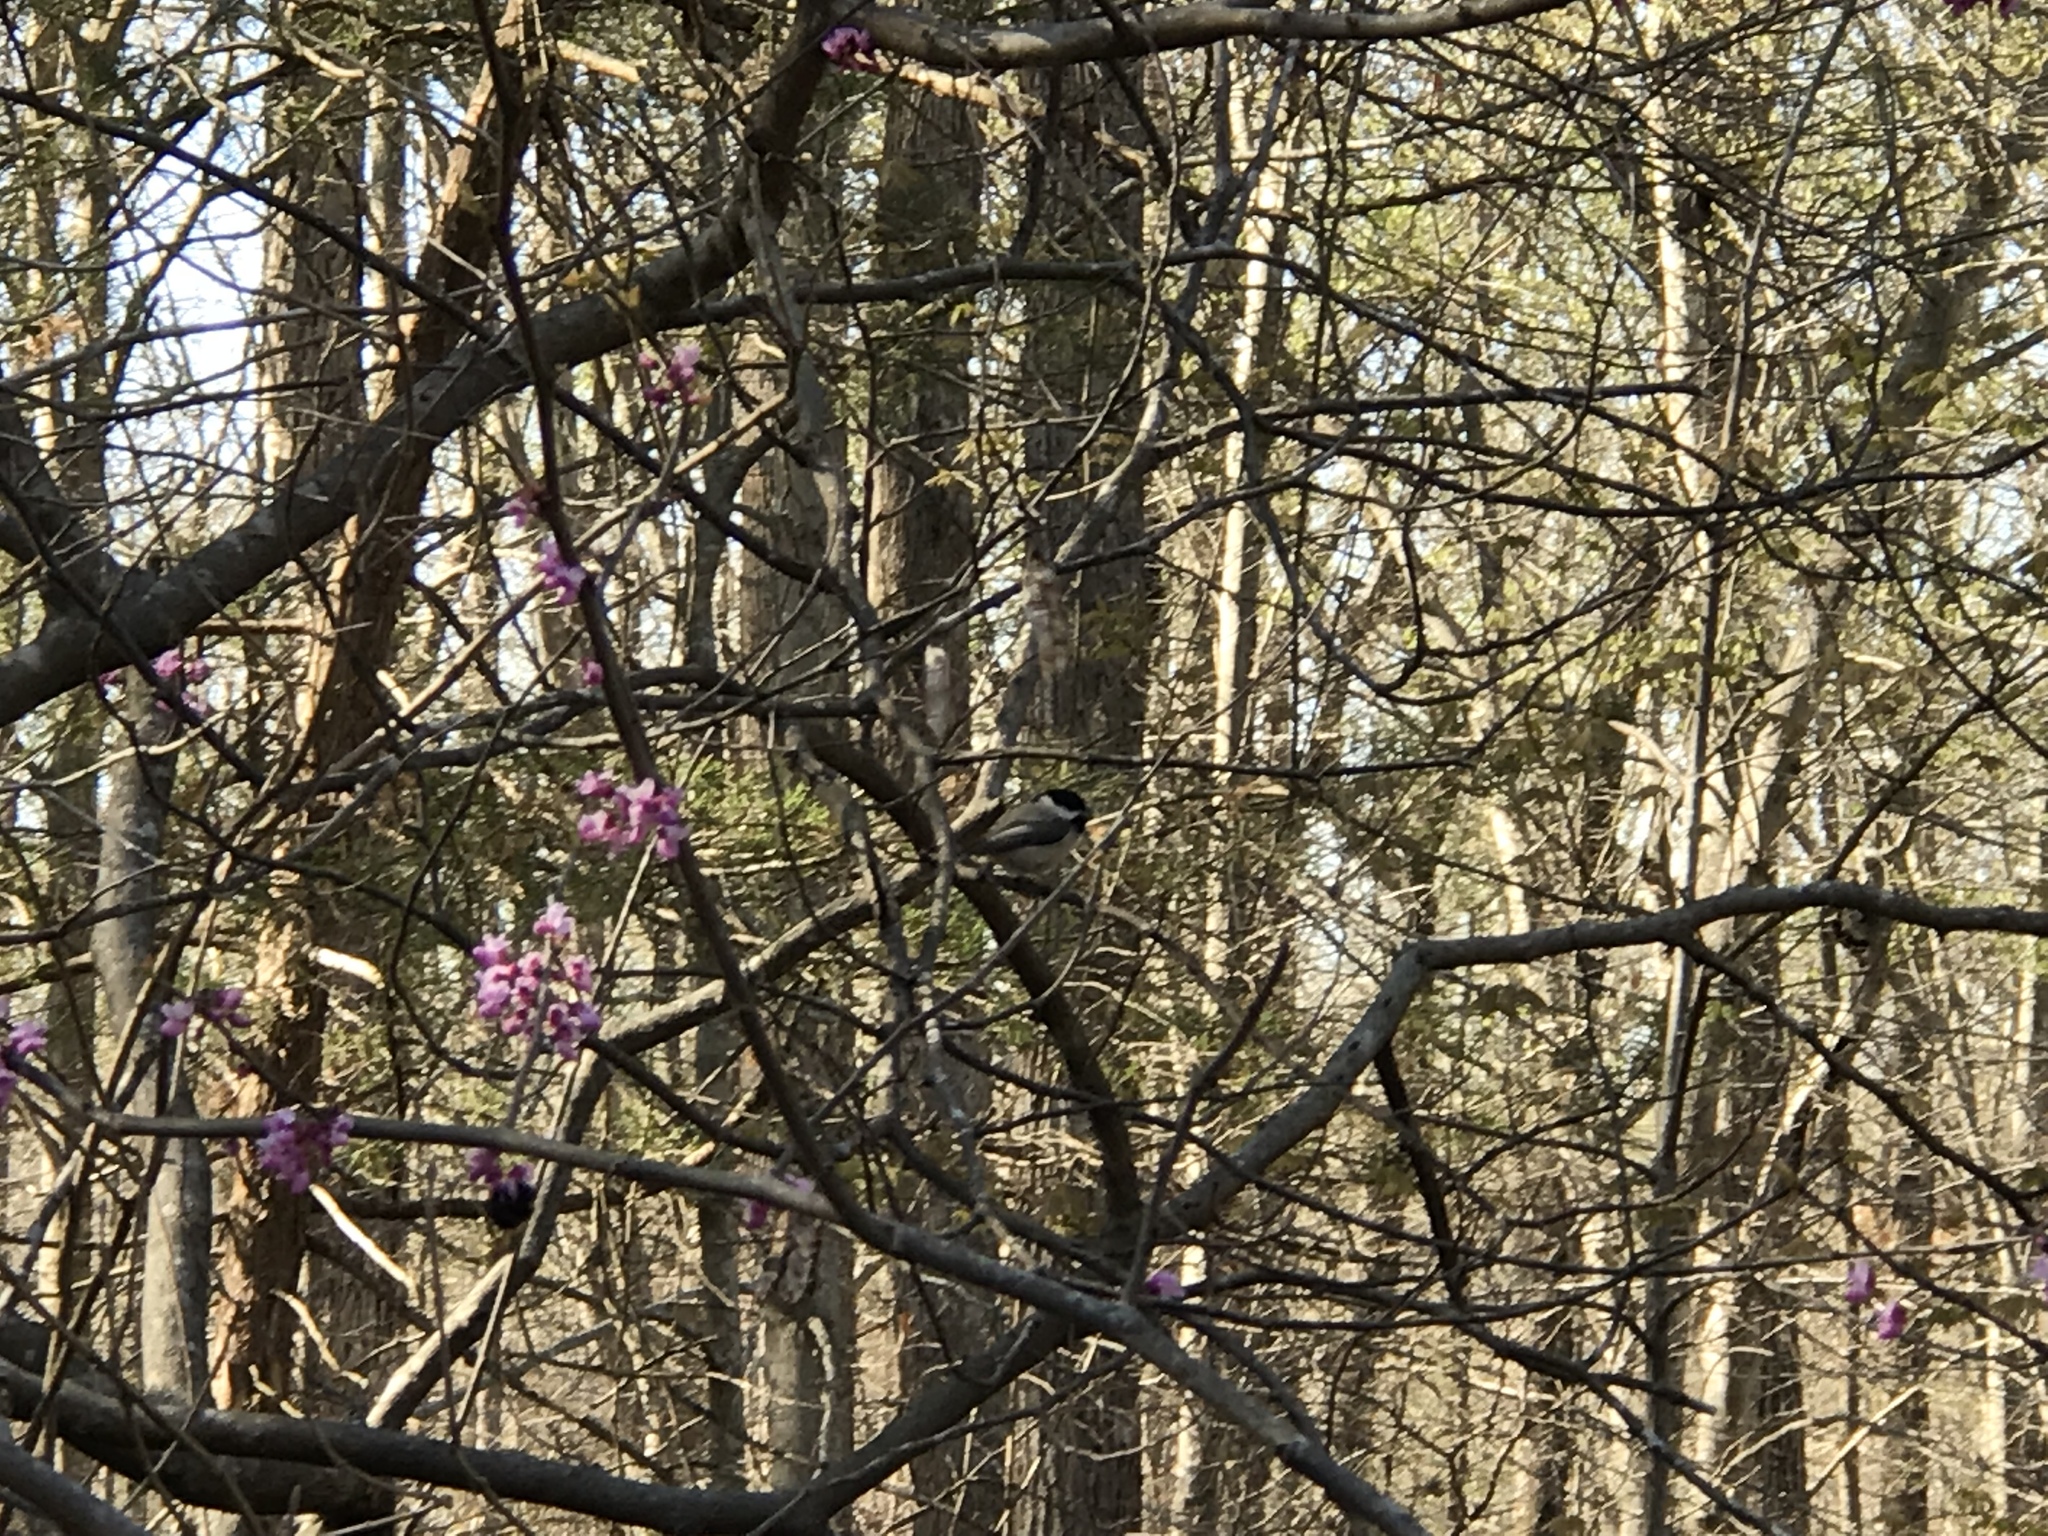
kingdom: Animalia
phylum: Chordata
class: Aves
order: Passeriformes
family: Paridae
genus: Poecile
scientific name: Poecile carolinensis
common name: Carolina chickadee
